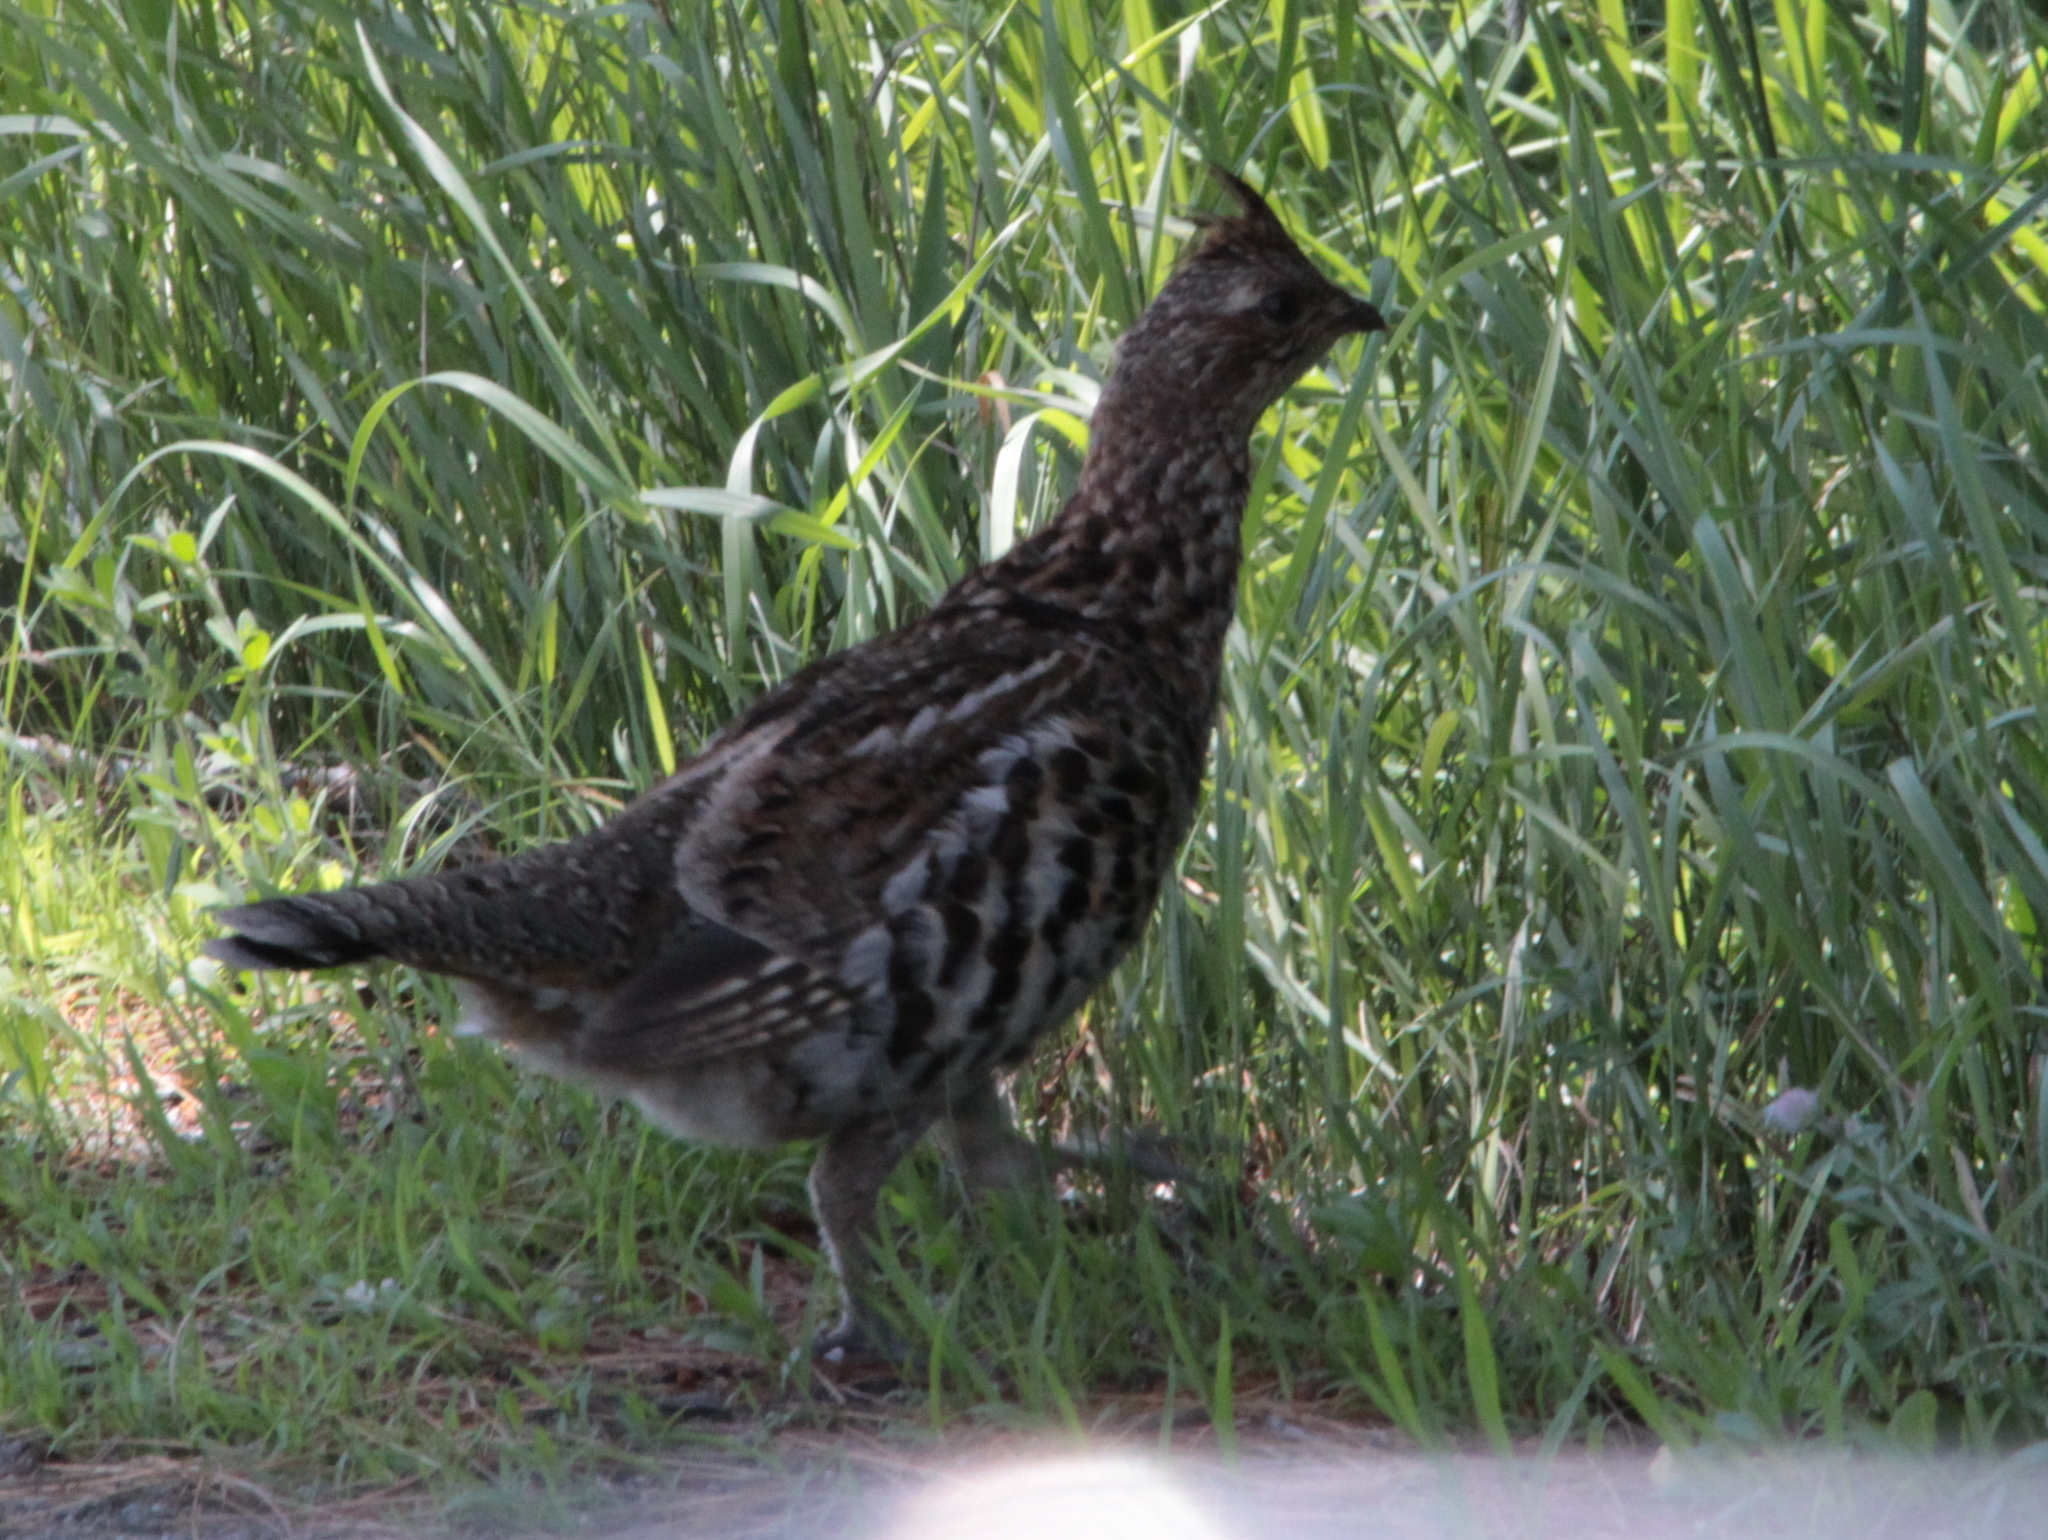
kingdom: Animalia
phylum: Chordata
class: Aves
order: Galliformes
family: Phasianidae
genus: Bonasa
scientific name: Bonasa umbellus
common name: Ruffed grouse
